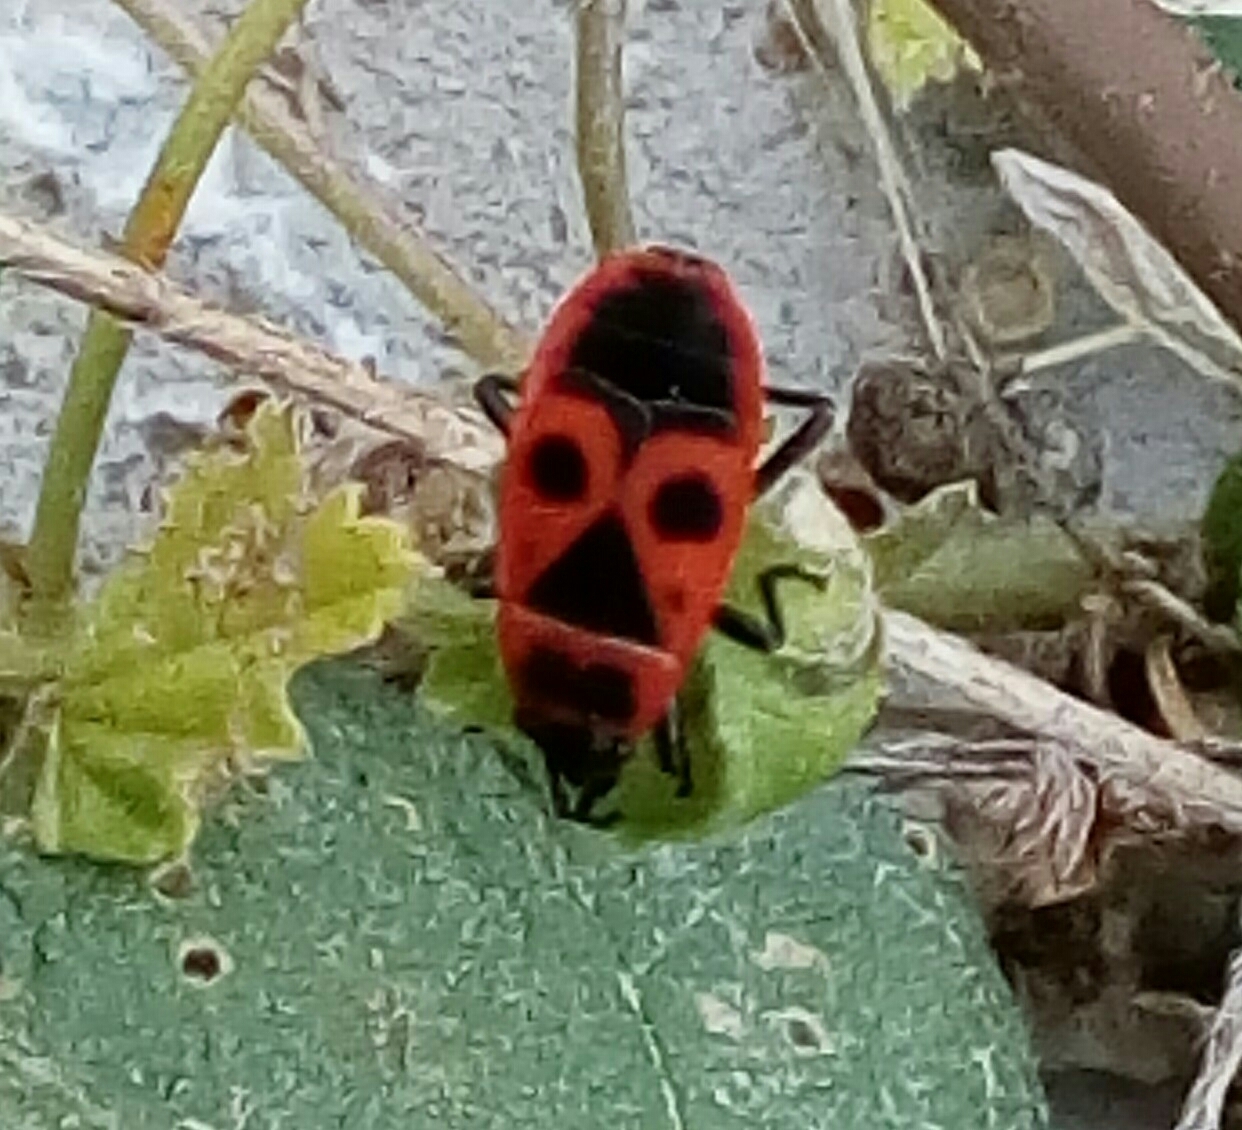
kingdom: Animalia
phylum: Arthropoda
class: Insecta
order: Hemiptera
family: Pyrrhocoridae
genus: Pyrrhocoris
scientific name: Pyrrhocoris apterus
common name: Firebug
